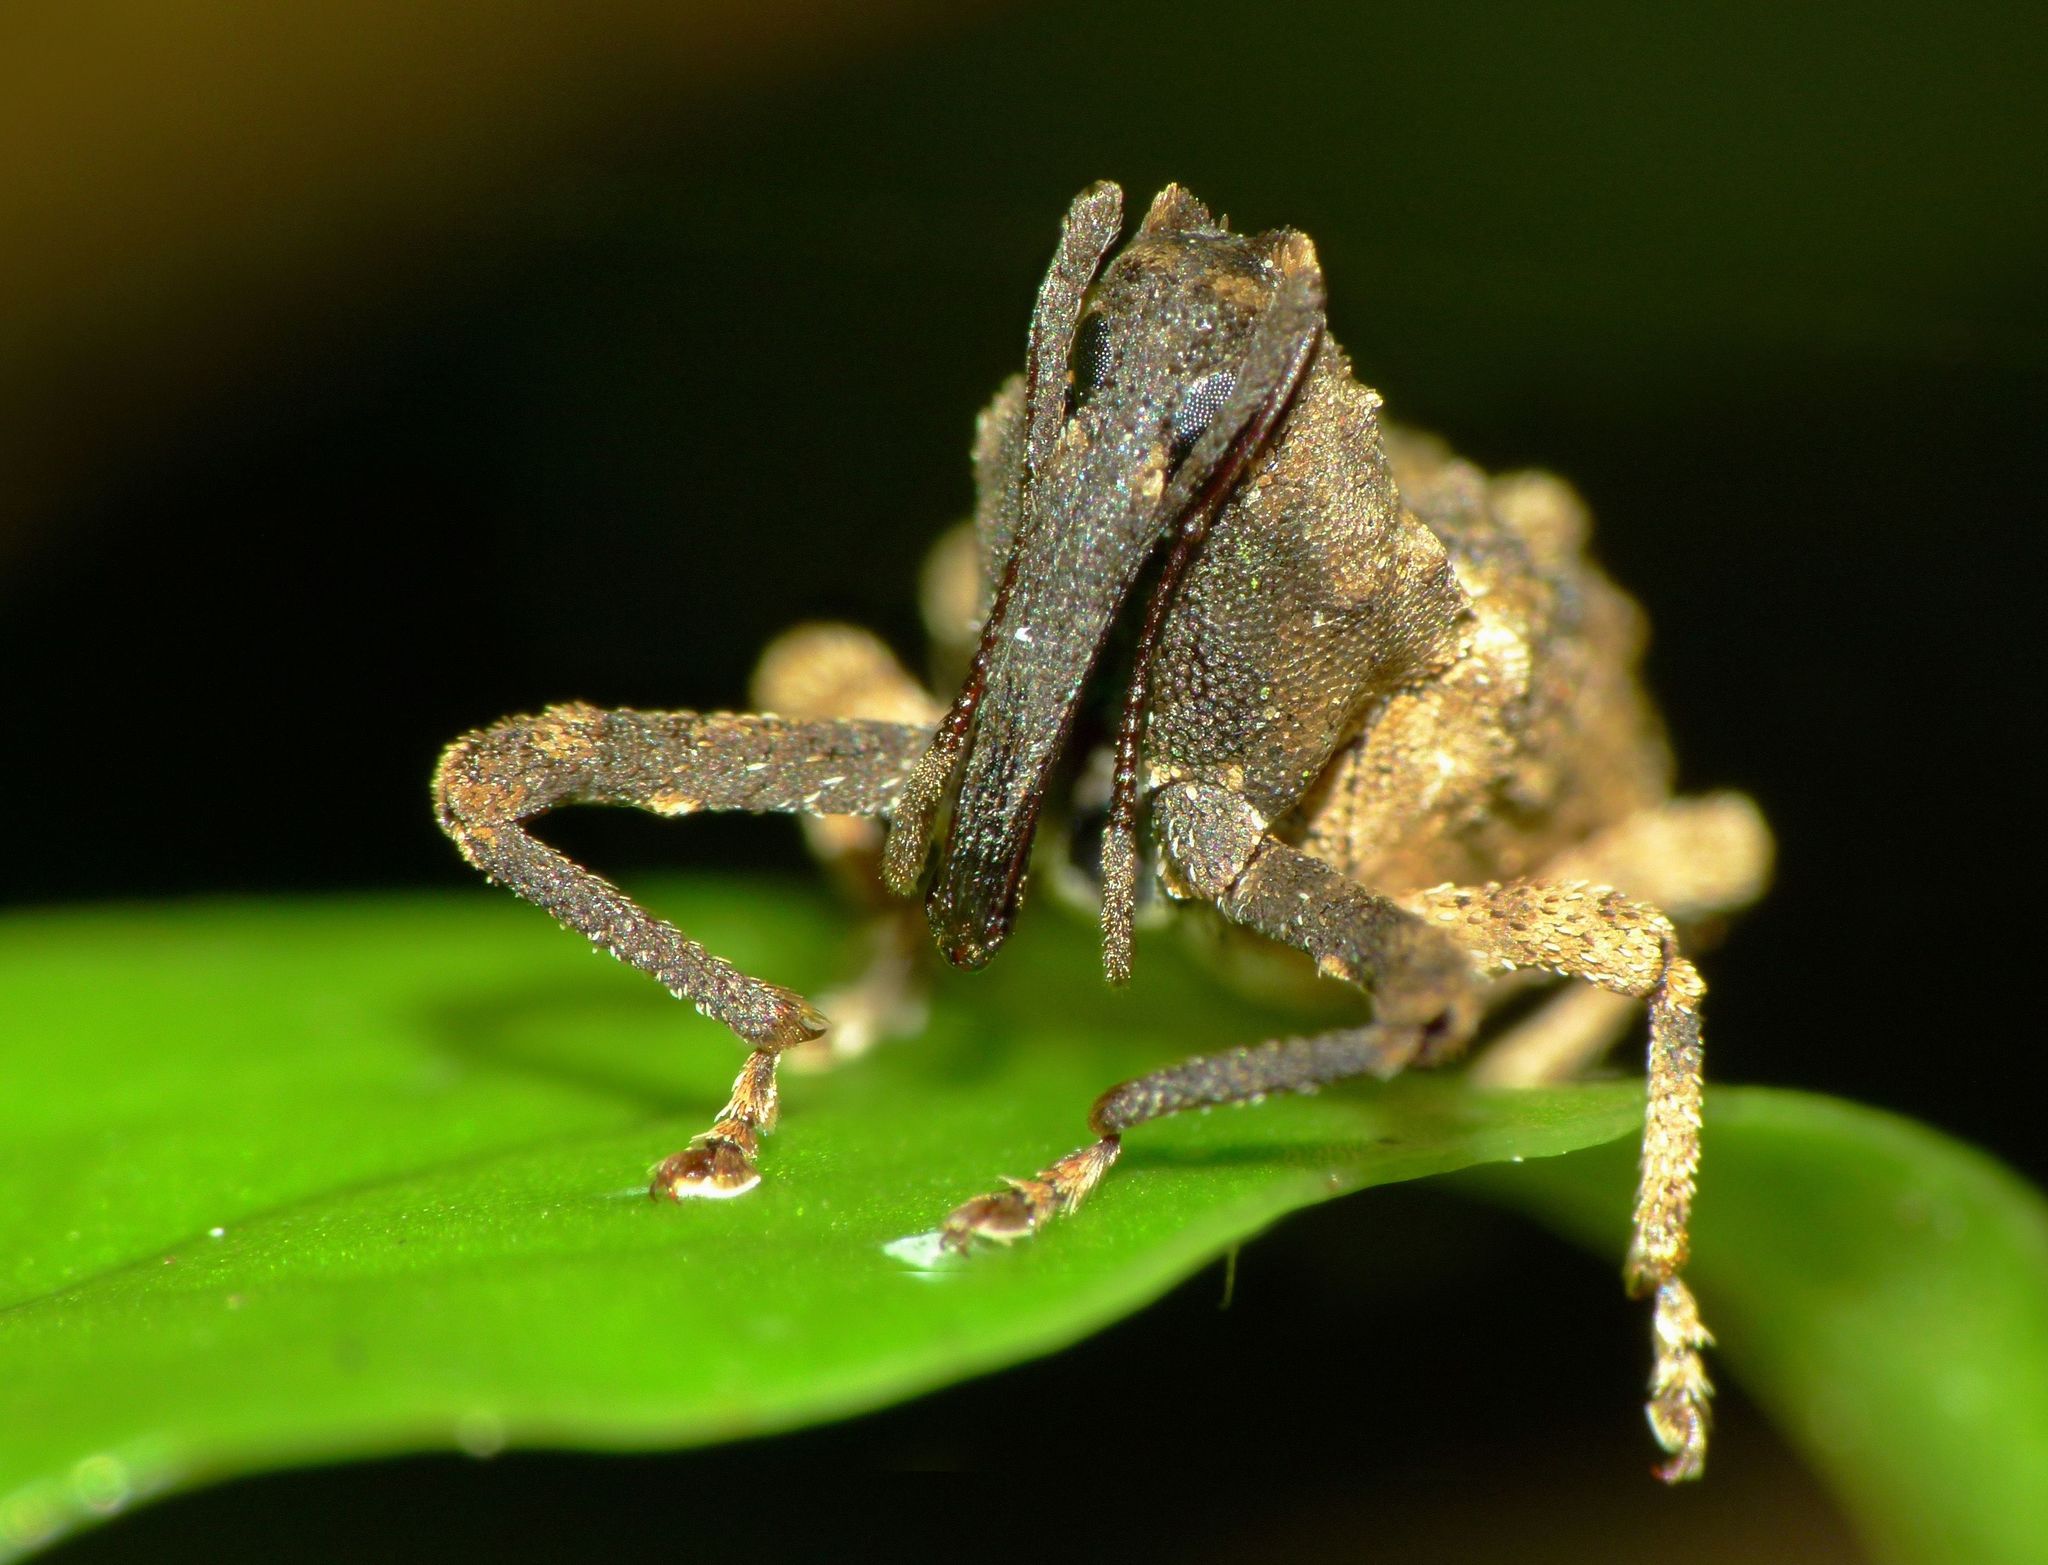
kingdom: Animalia
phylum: Arthropoda
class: Insecta
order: Coleoptera
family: Curculionidae
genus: Mecistostylus
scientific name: Mecistostylus douei
